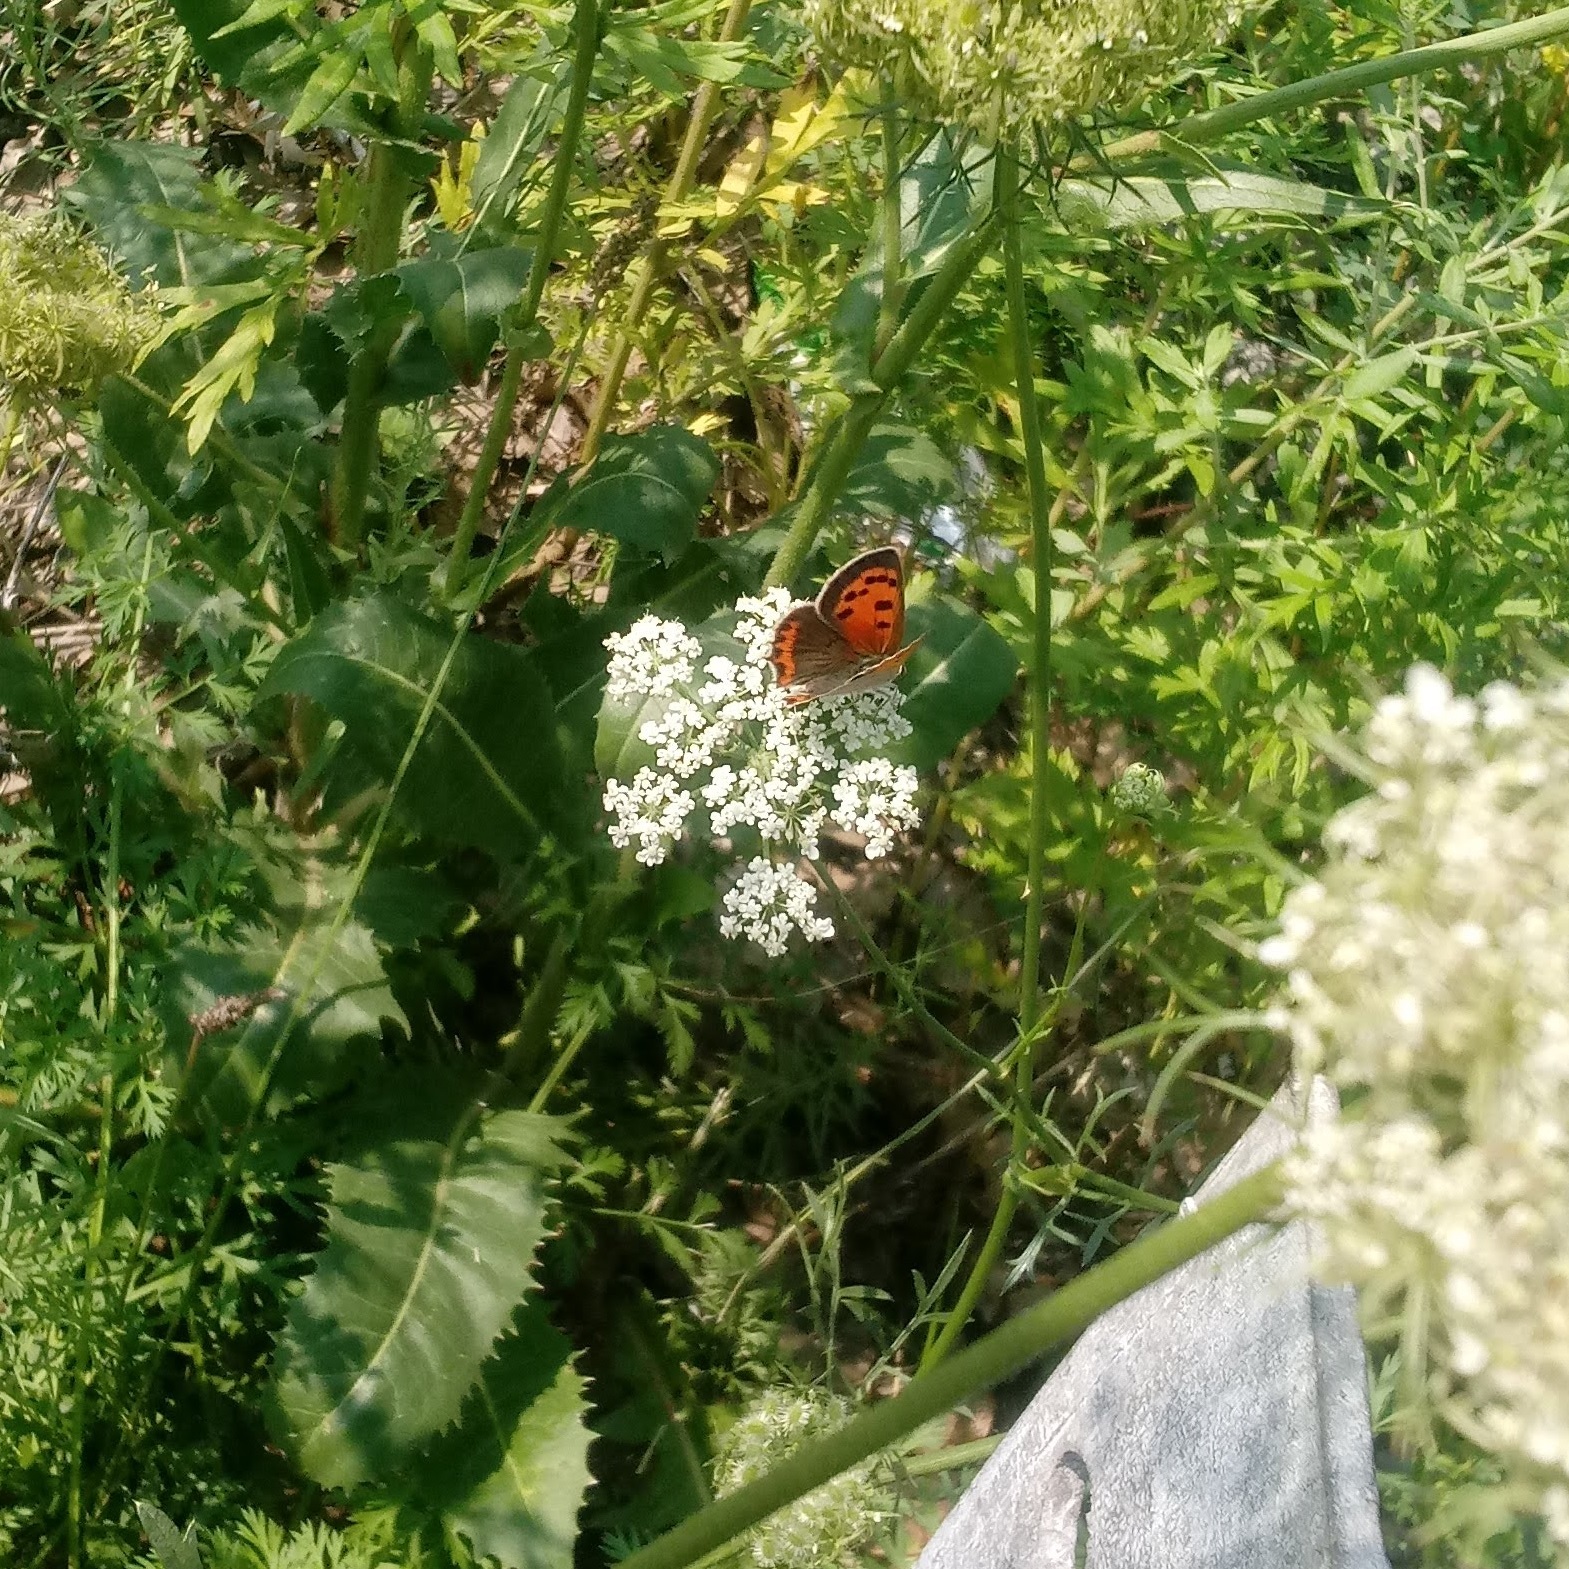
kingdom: Plantae
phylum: Tracheophyta
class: Magnoliopsida
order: Apiales
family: Apiaceae
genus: Daucus
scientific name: Daucus carota
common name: Wild carrot
